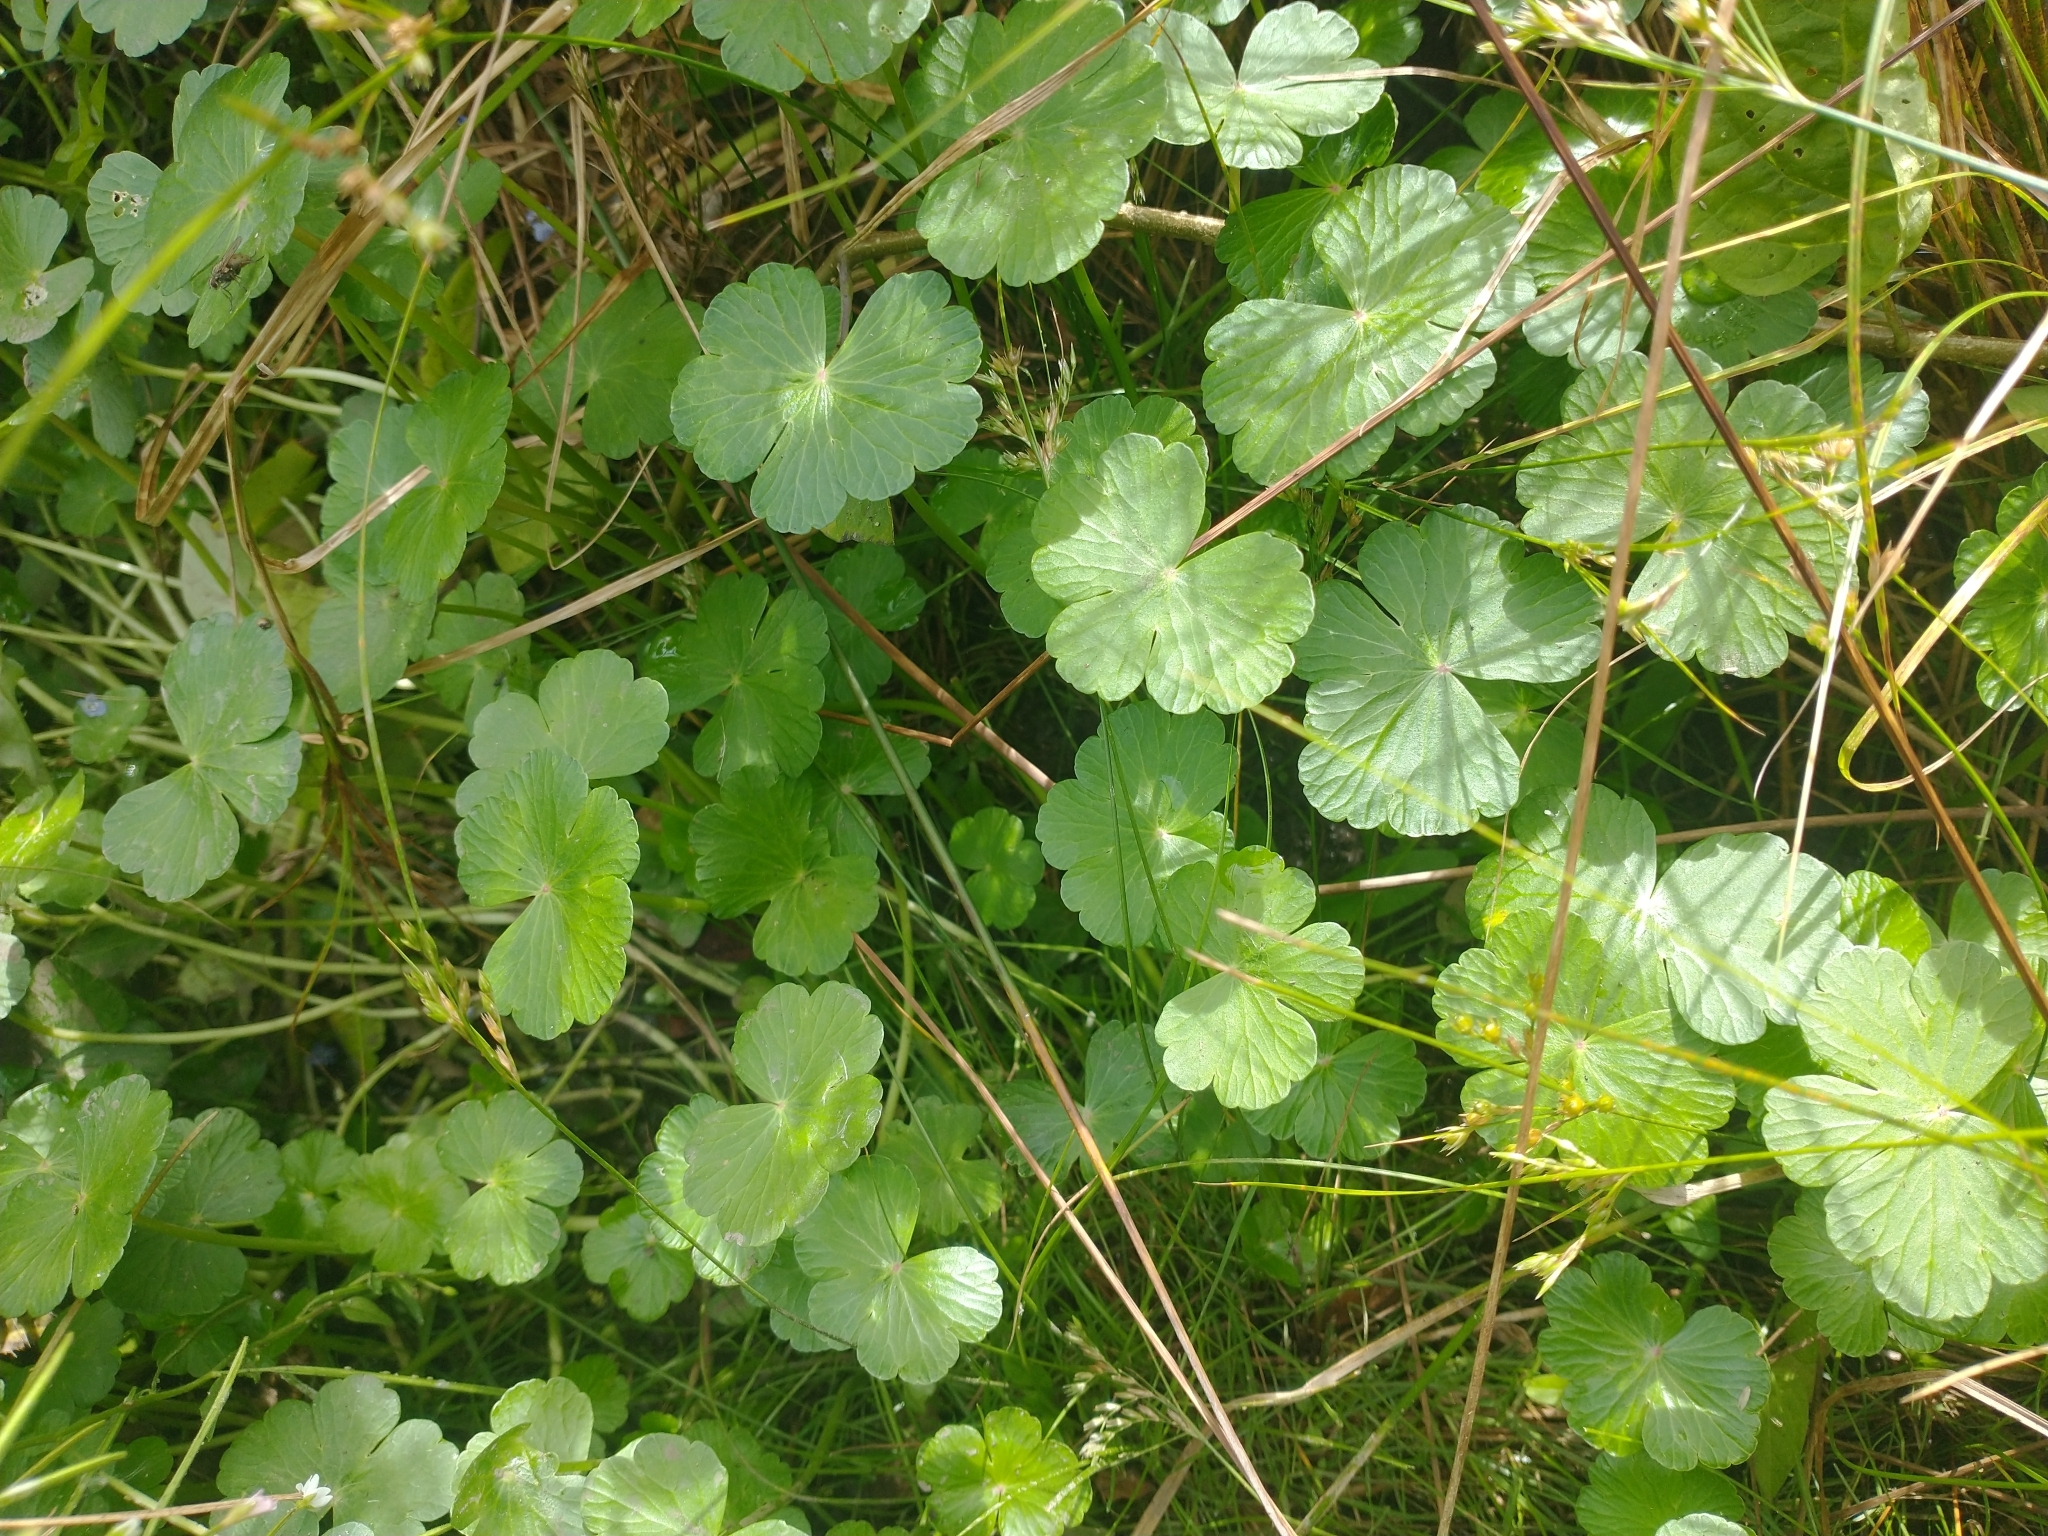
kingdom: Plantae
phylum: Tracheophyta
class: Magnoliopsida
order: Apiales
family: Araliaceae
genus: Hydrocotyle
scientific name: Hydrocotyle ranunculoides
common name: Floating pennywort
